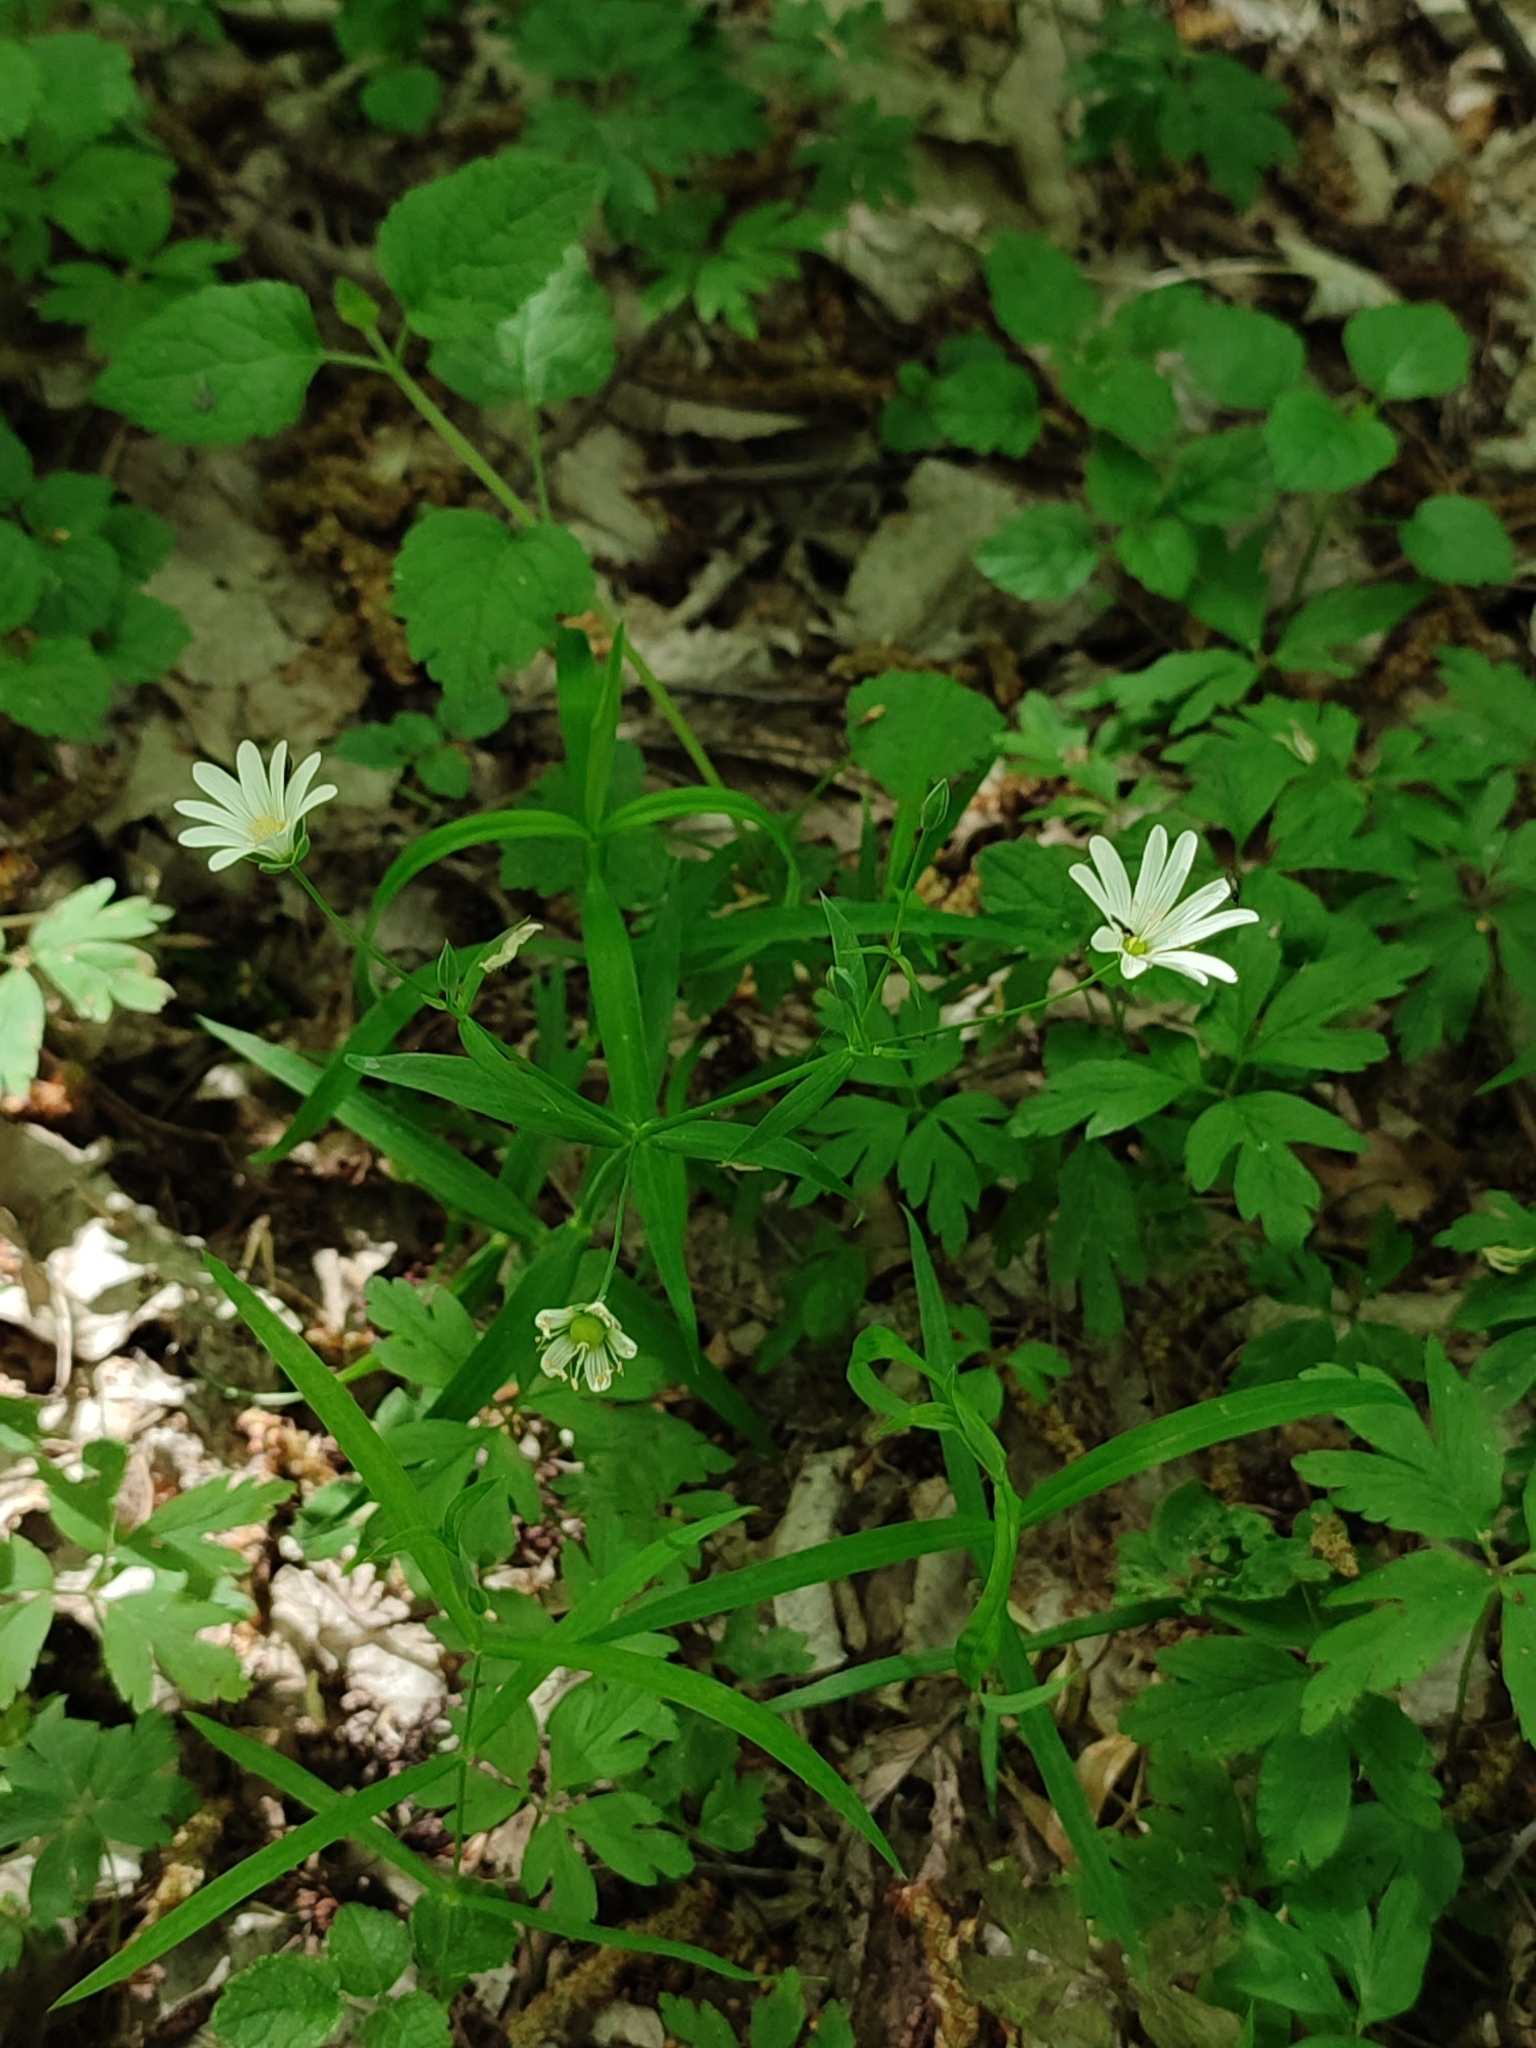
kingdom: Plantae
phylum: Tracheophyta
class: Magnoliopsida
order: Caryophyllales
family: Caryophyllaceae
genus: Rabelera
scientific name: Rabelera holostea
